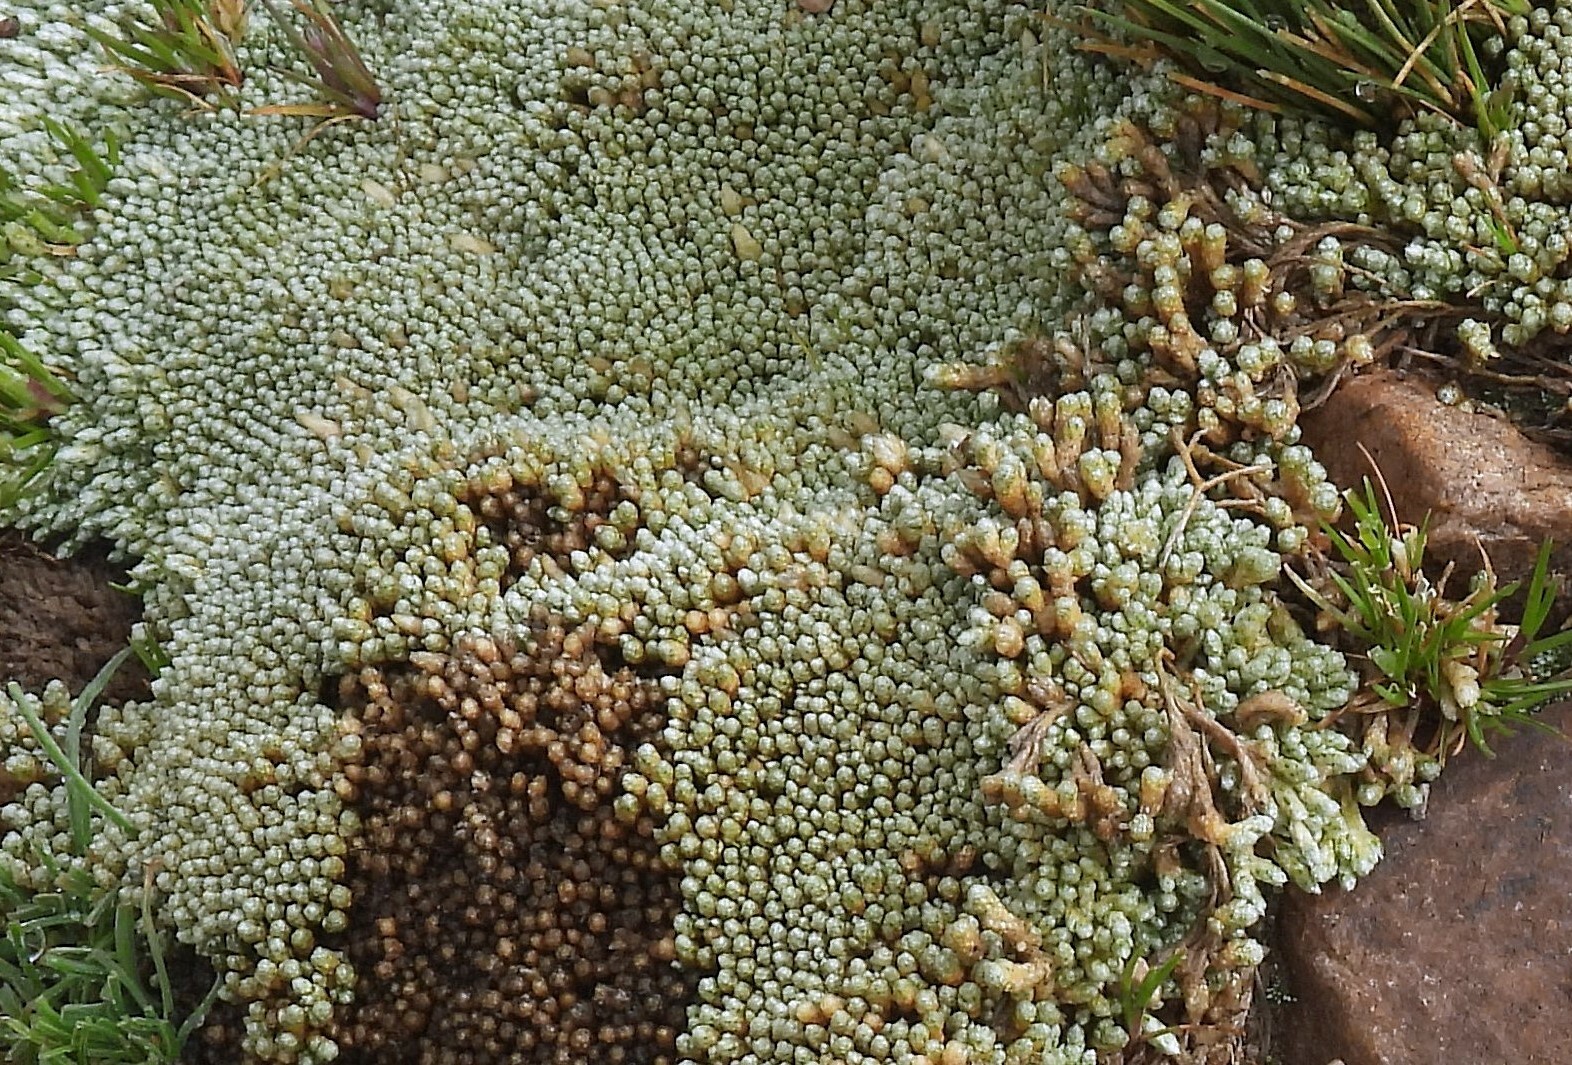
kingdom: Plantae
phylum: Tracheophyta
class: Magnoliopsida
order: Caryophyllales
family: Caryophyllaceae
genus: Pycnophyllum
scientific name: Pycnophyllum molle
